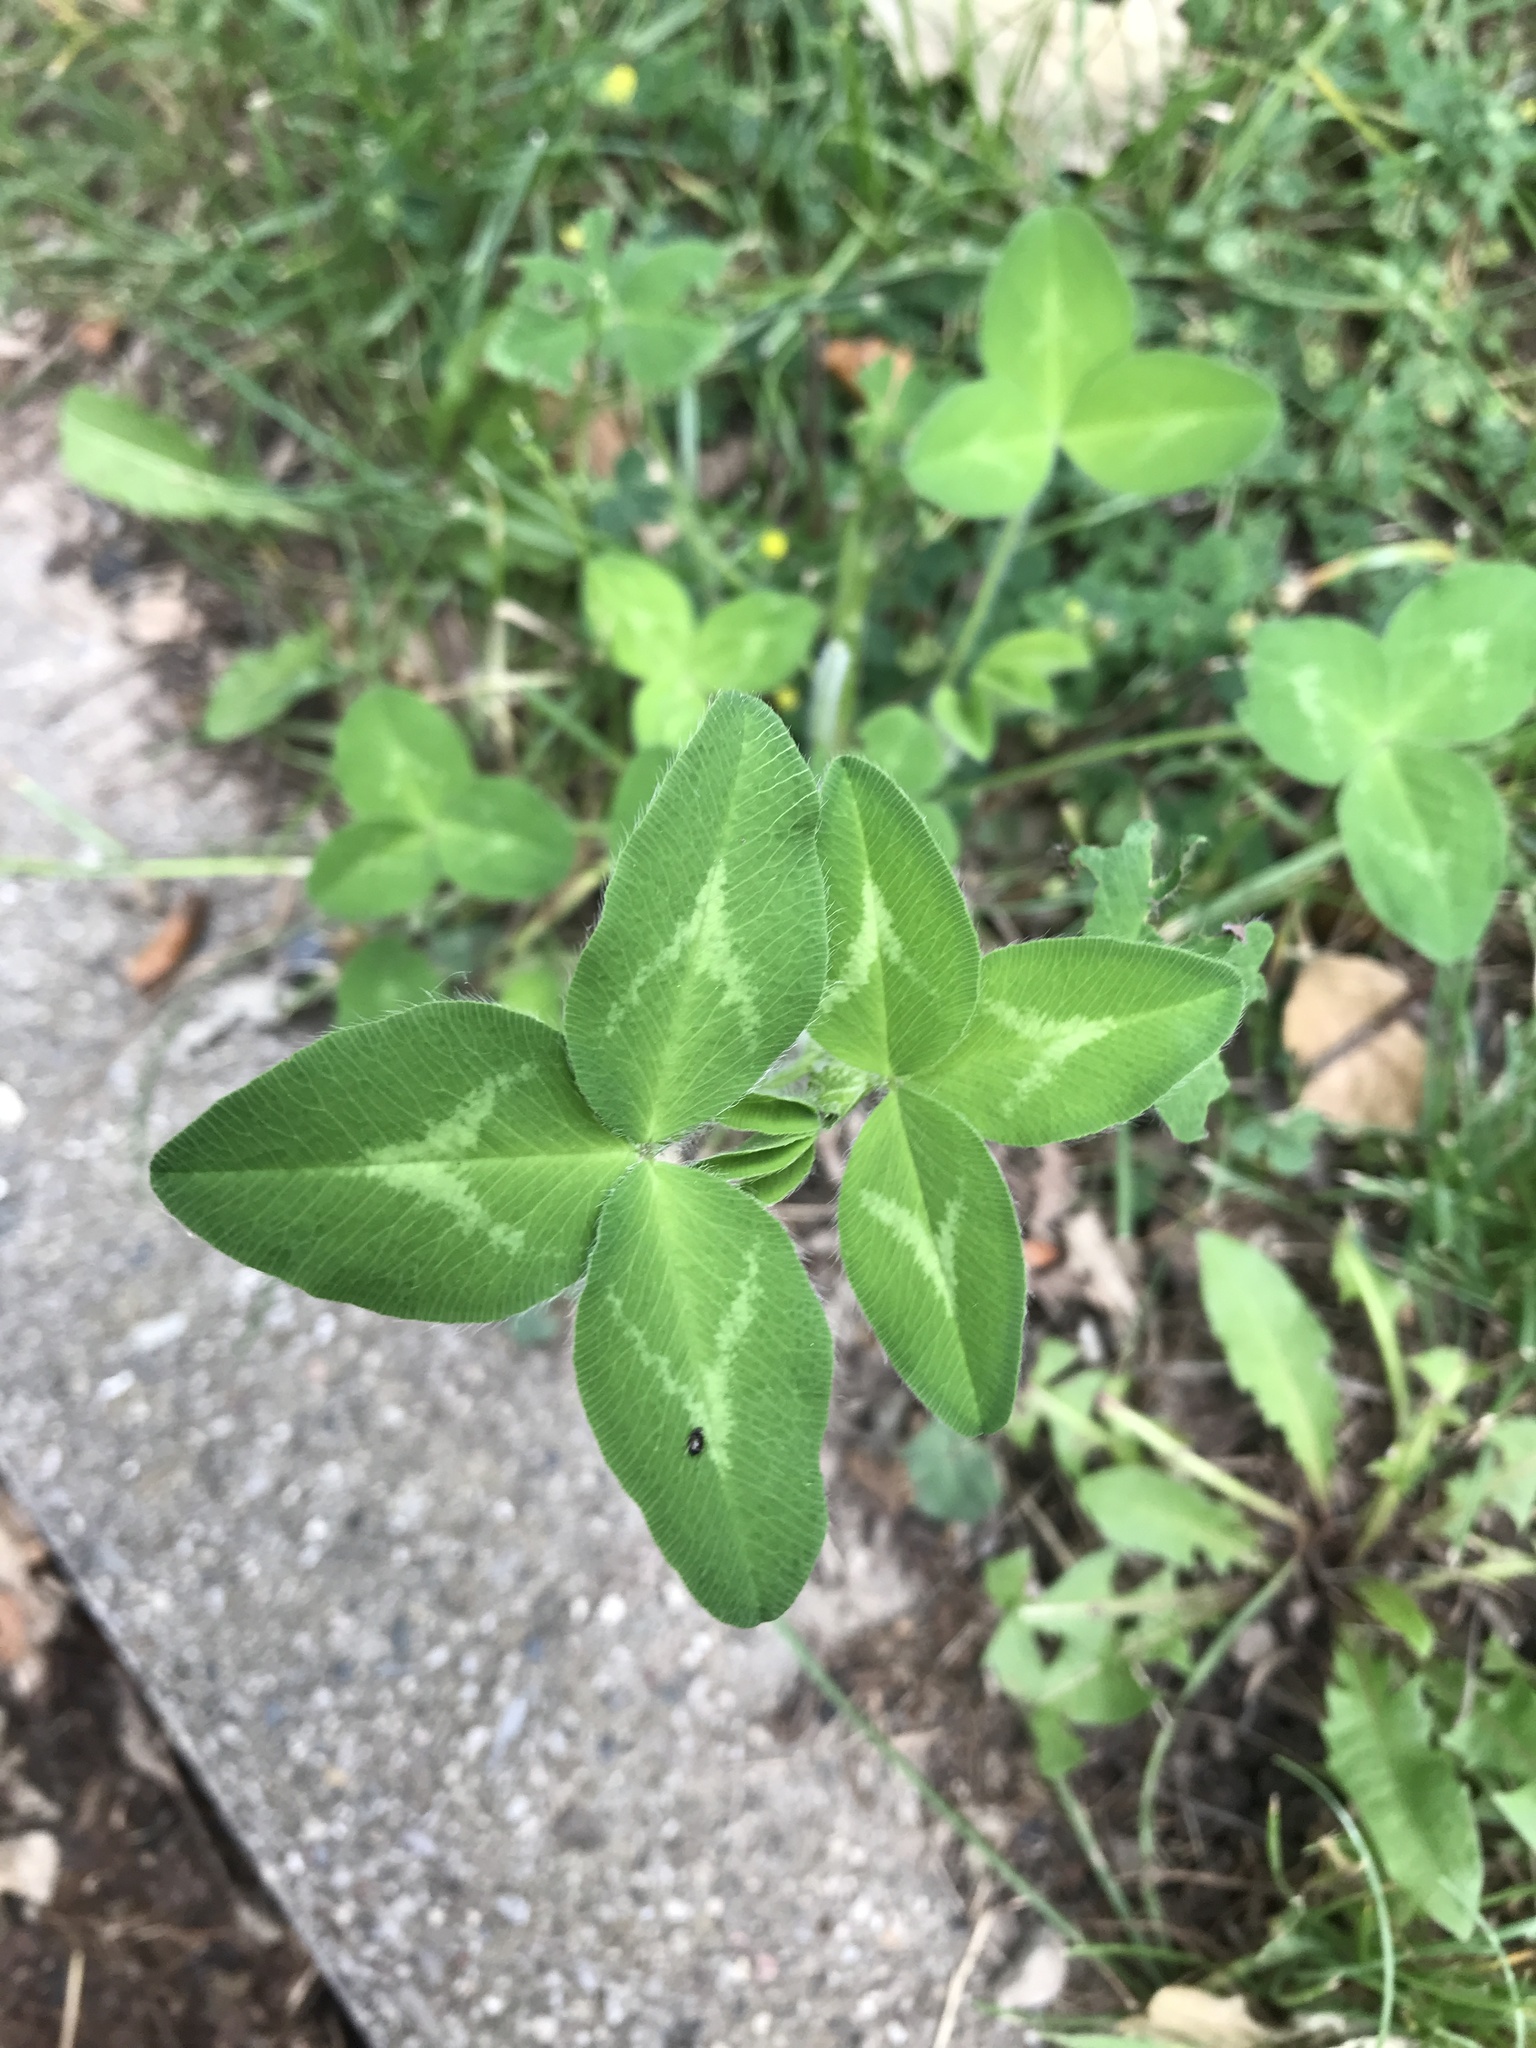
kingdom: Plantae
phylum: Tracheophyta
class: Magnoliopsida
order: Fabales
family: Fabaceae
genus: Trifolium
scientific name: Trifolium pratense
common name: Red clover
